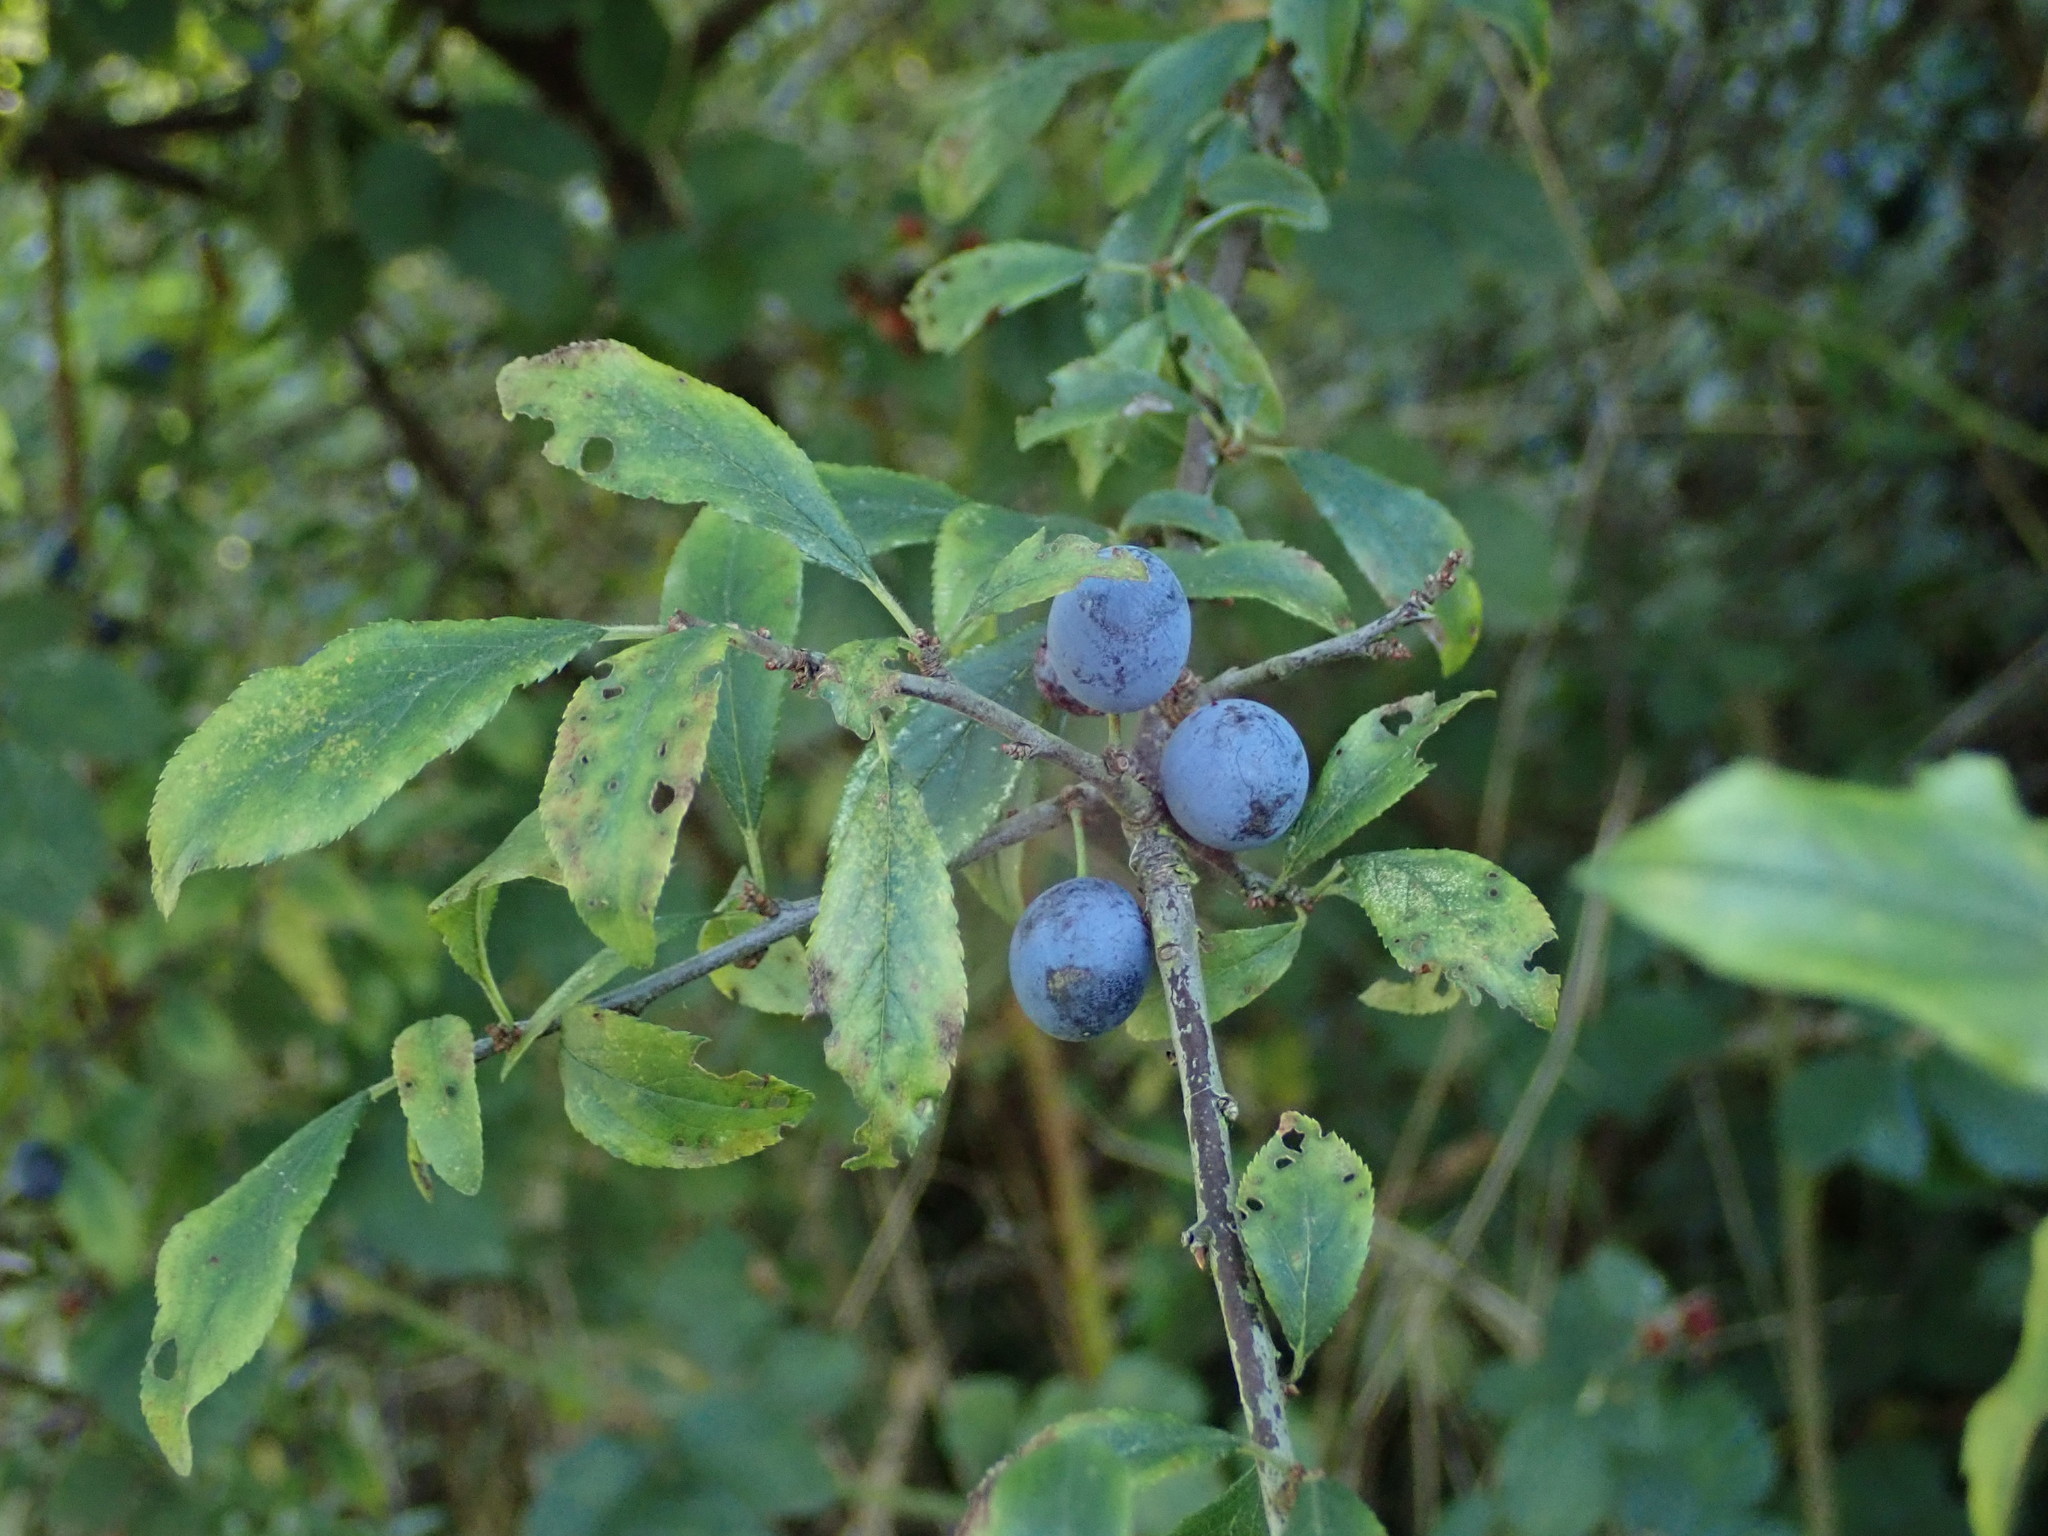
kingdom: Plantae
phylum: Tracheophyta
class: Magnoliopsida
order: Rosales
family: Rosaceae
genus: Prunus
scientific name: Prunus spinosa
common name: Blackthorn
